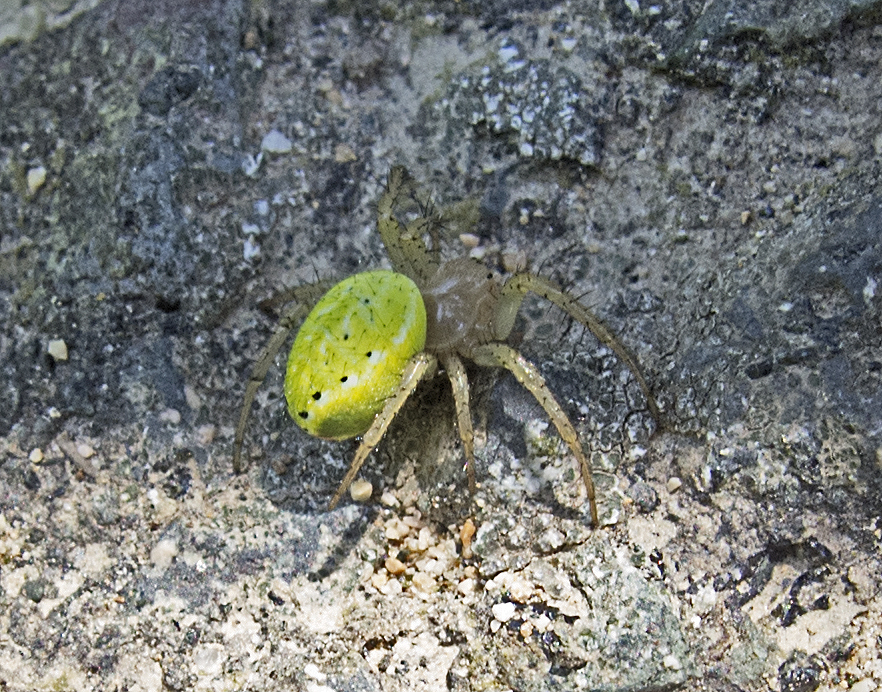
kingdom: Animalia
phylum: Arthropoda
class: Arachnida
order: Araneae
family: Araneidae
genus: Araniella
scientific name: Araniella opisthographa
